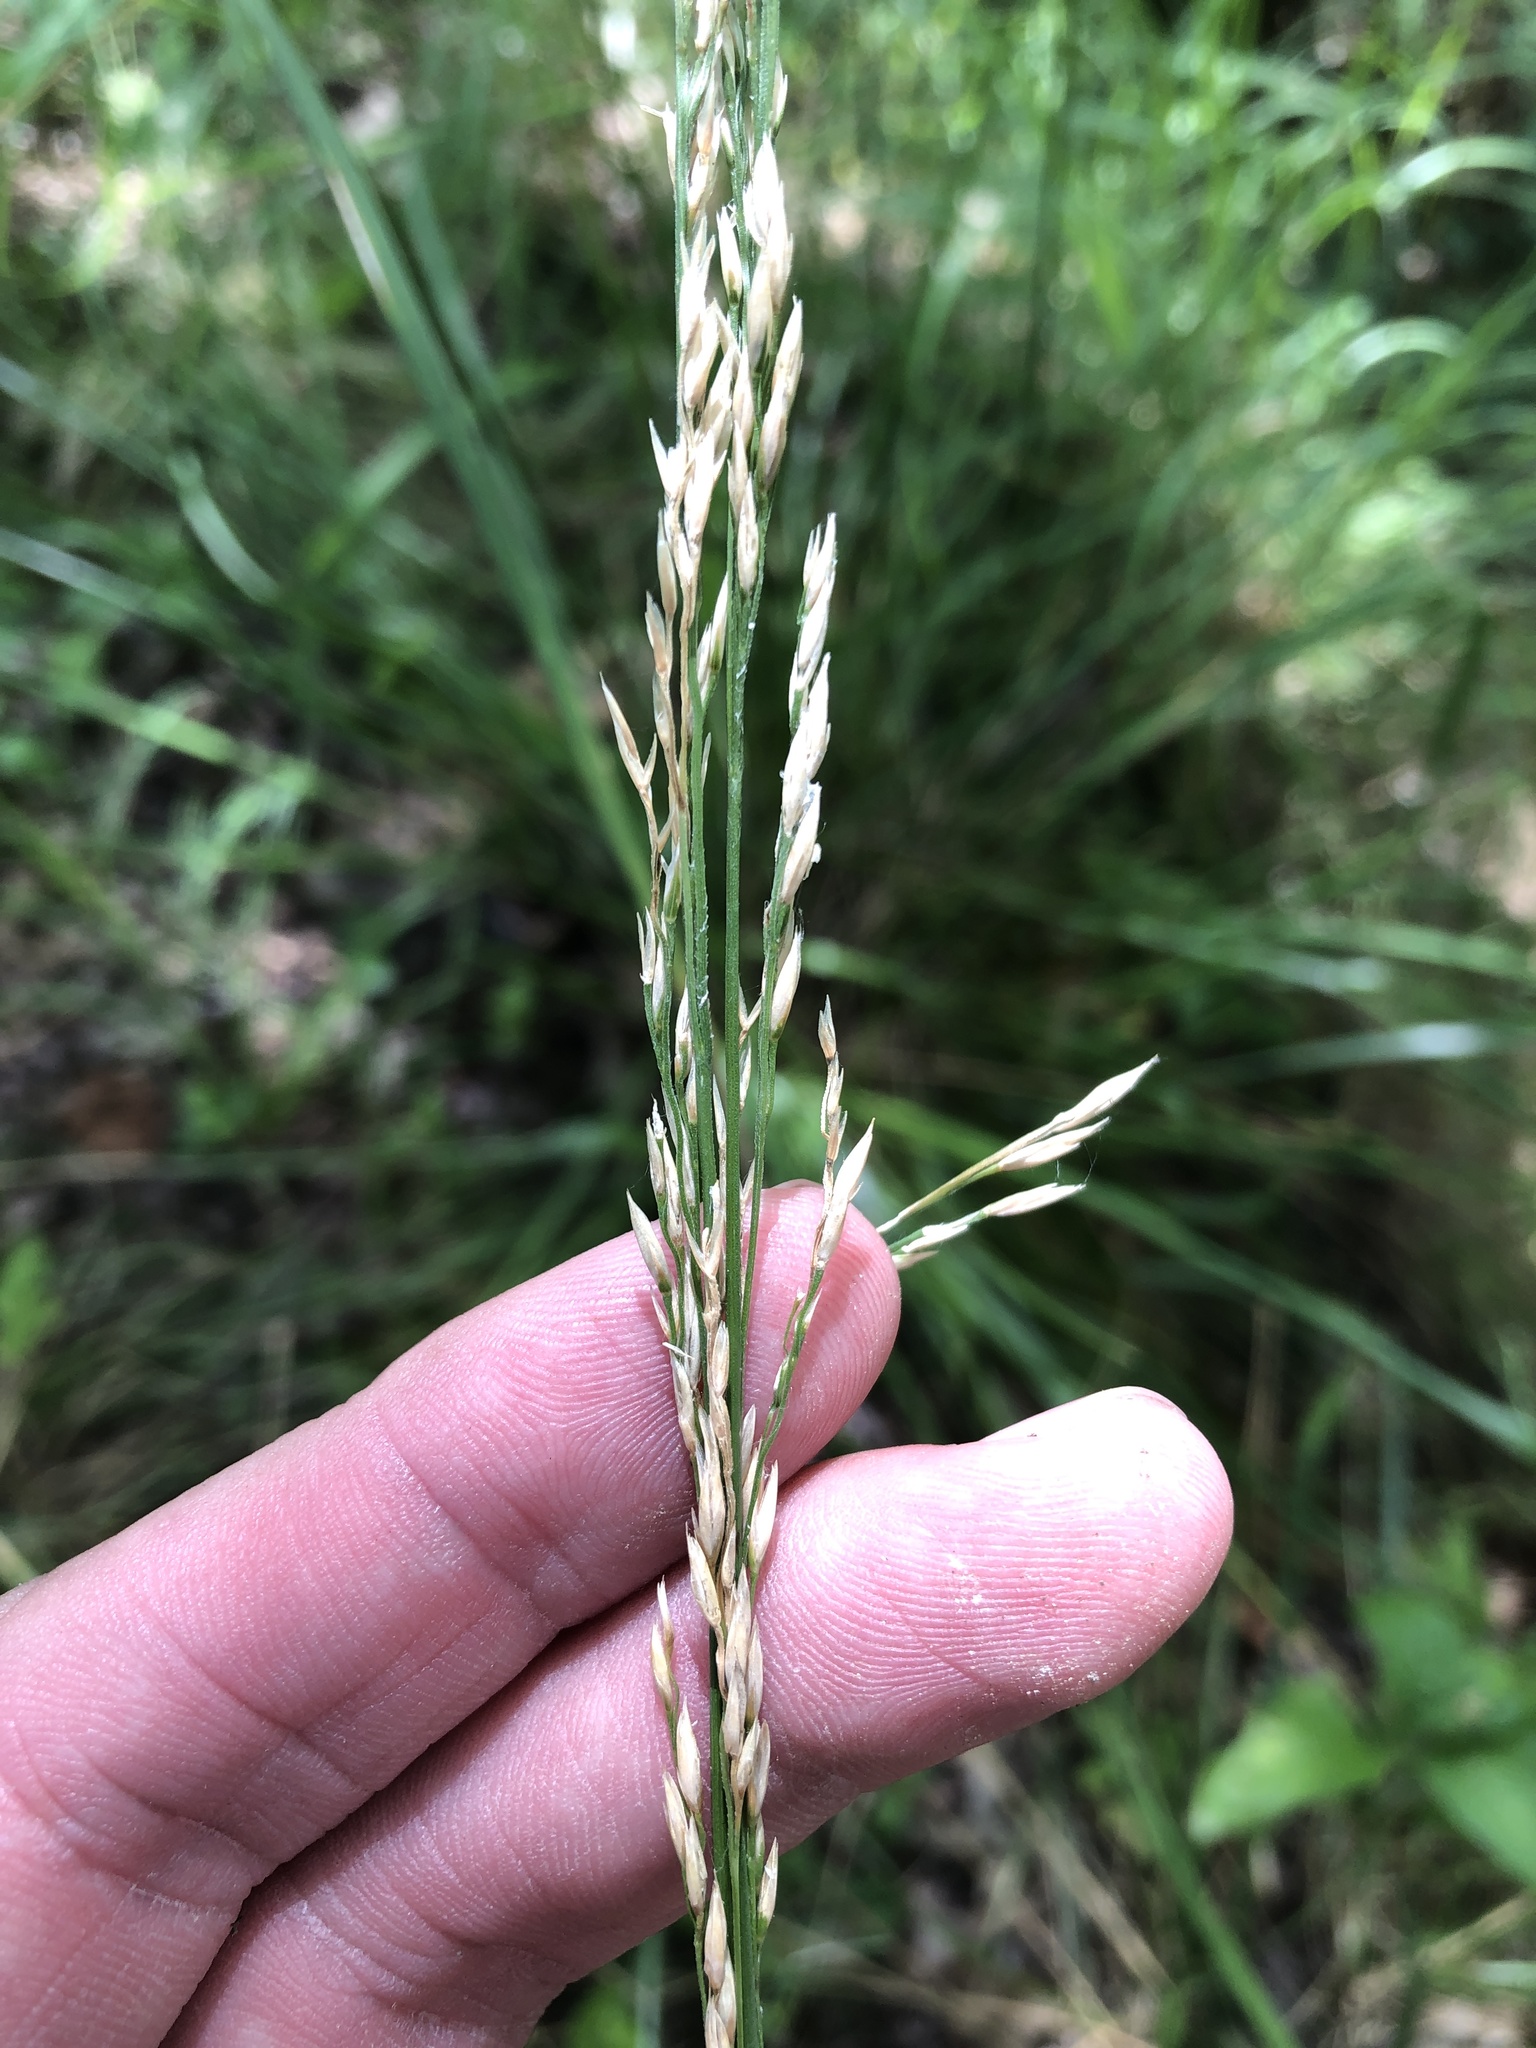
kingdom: Plantae
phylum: Tracheophyta
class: Liliopsida
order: Poales
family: Poaceae
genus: Lolium
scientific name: Lolium arundinaceum
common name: Reed fescue
